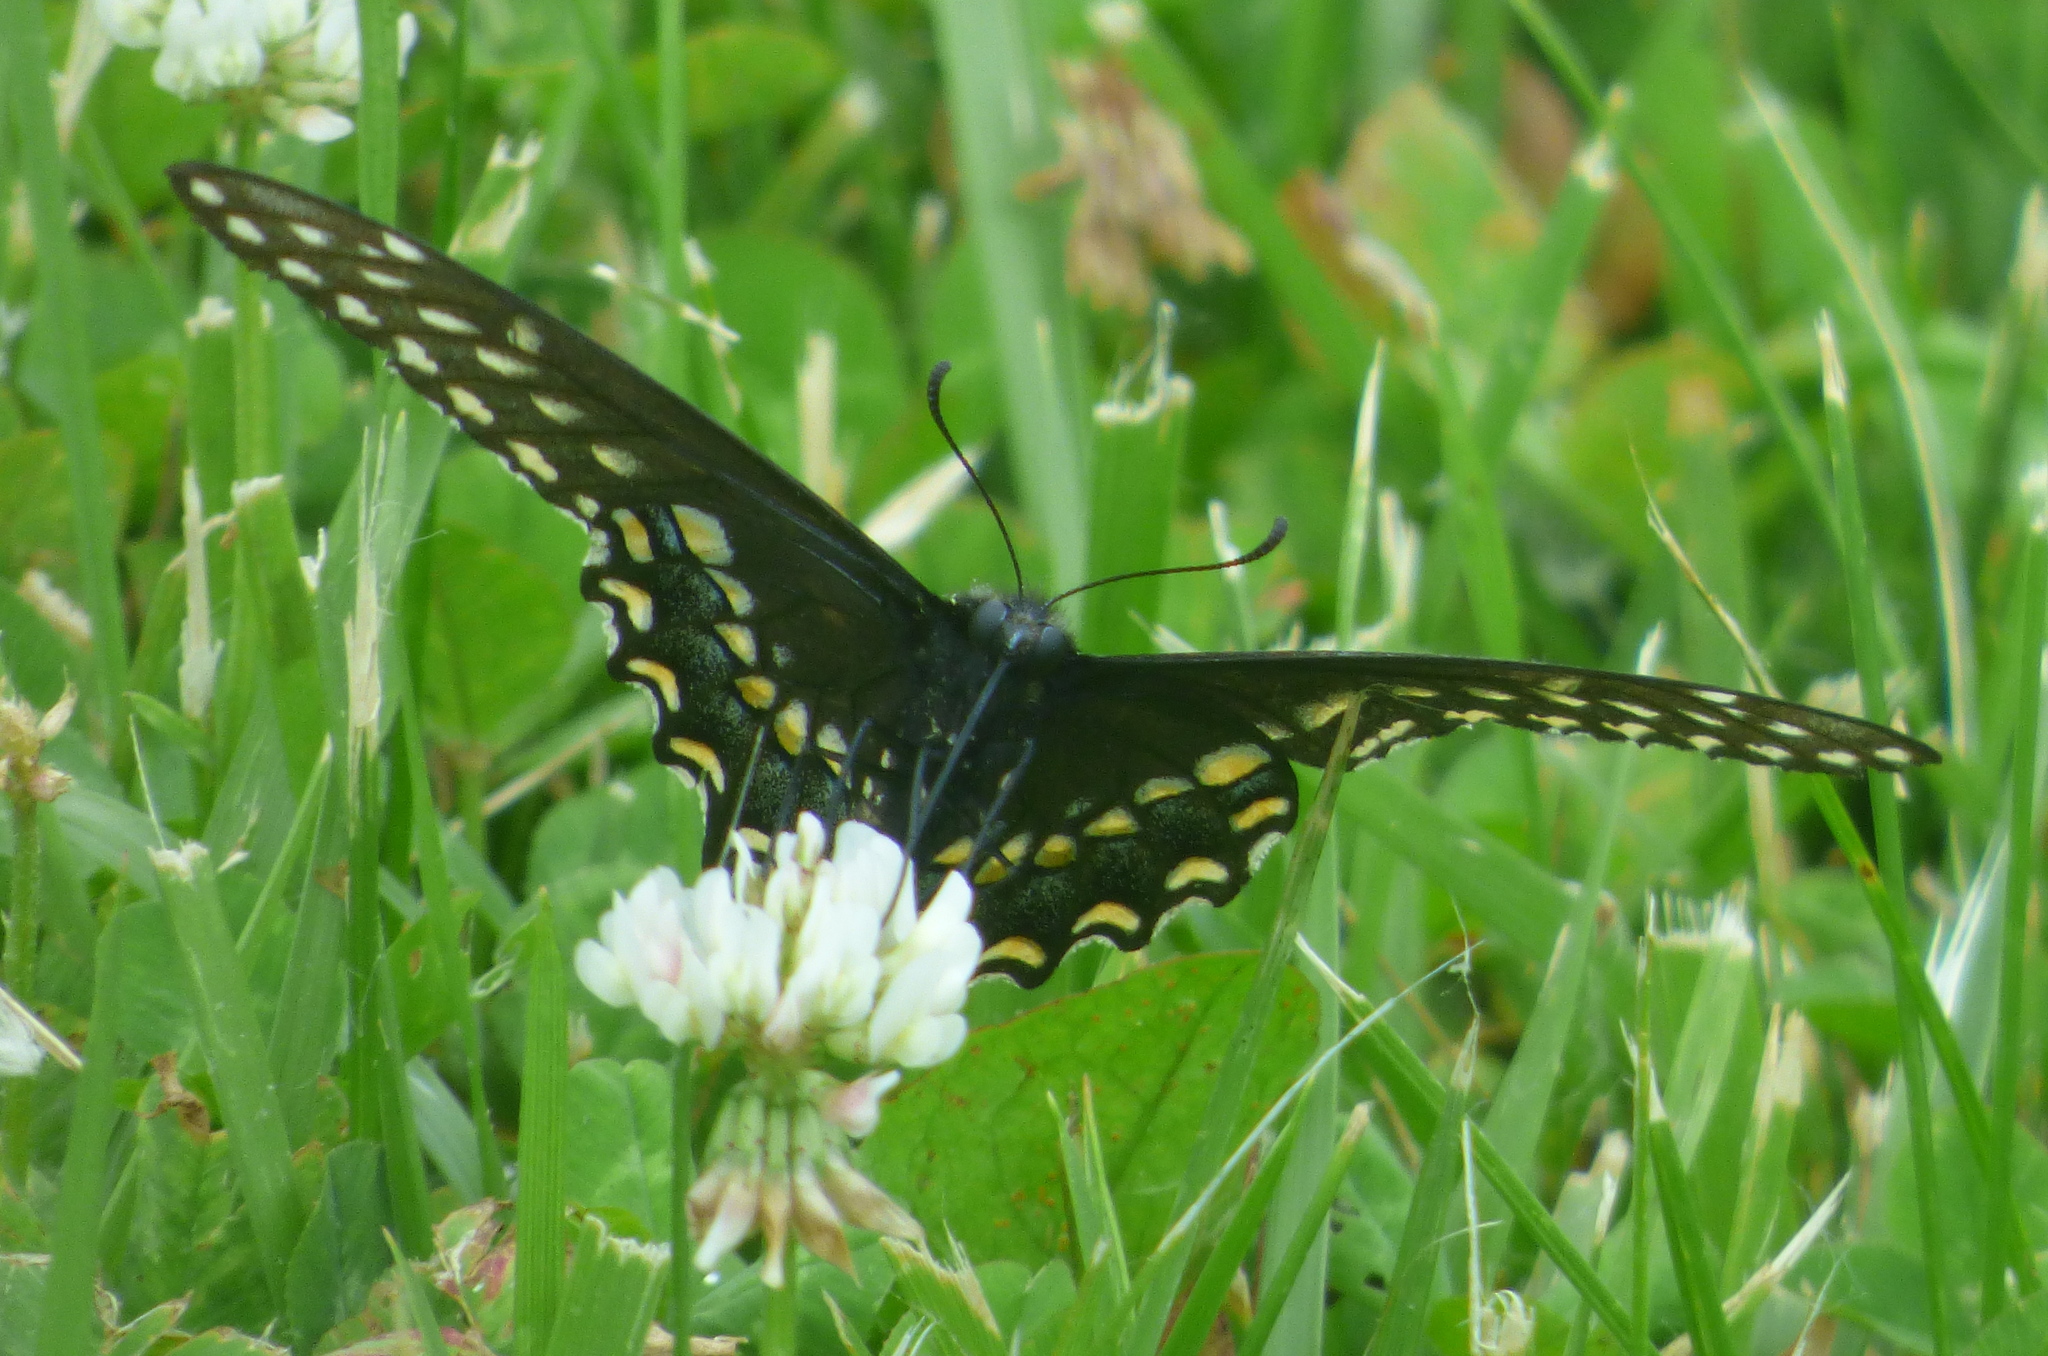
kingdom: Animalia
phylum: Arthropoda
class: Insecta
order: Lepidoptera
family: Papilionidae
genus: Papilio
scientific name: Papilio polyxenes
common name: Black swallowtail
